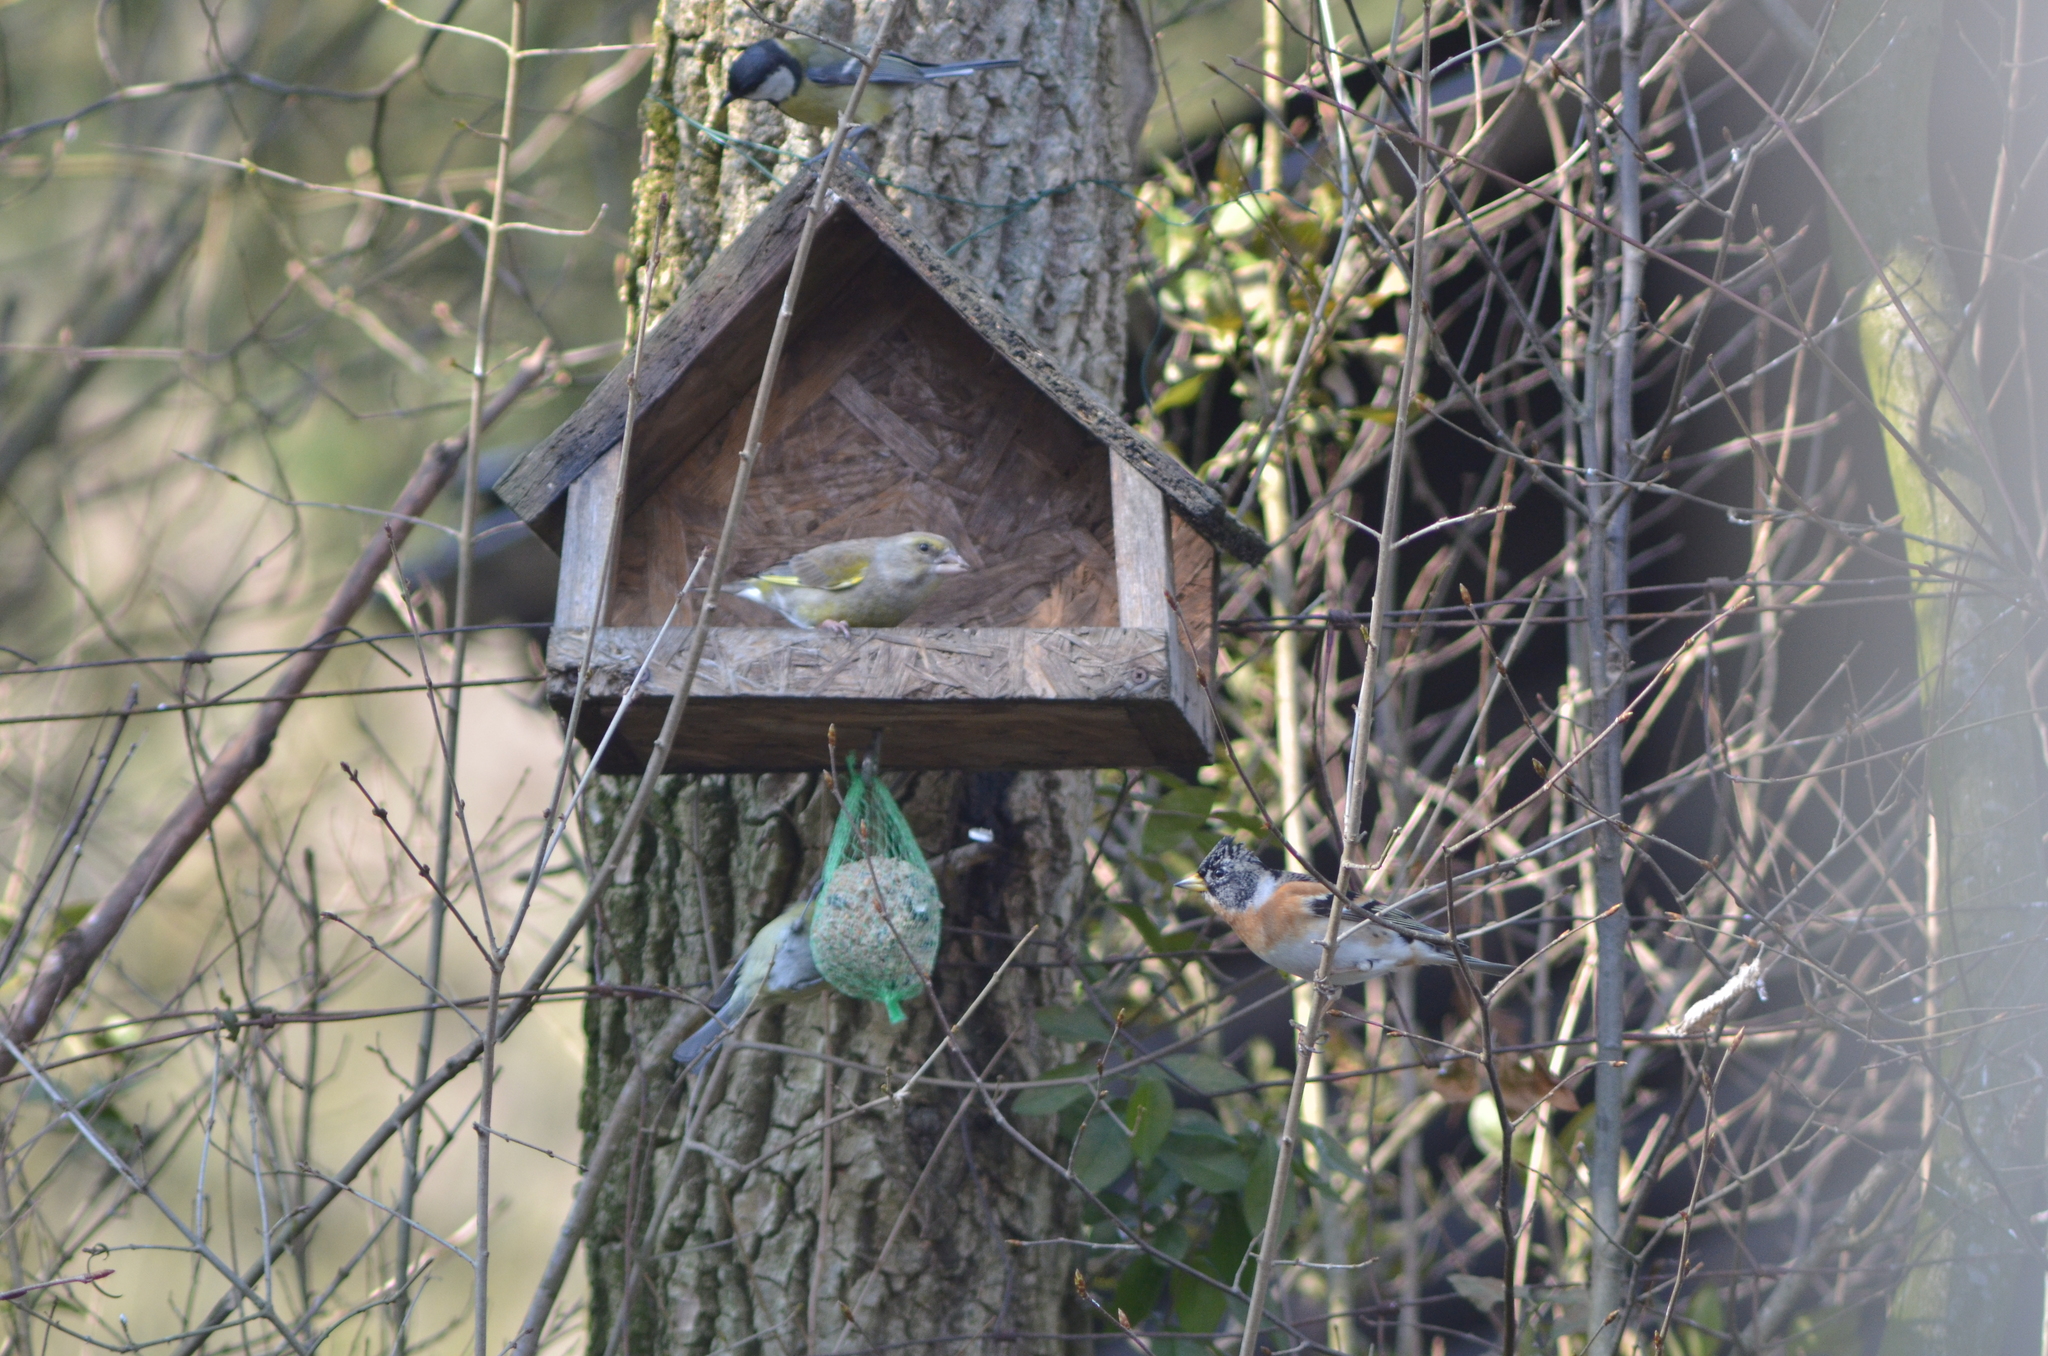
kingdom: Animalia
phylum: Chordata
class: Aves
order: Passeriformes
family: Fringillidae
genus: Fringilla
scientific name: Fringilla montifringilla
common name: Brambling
